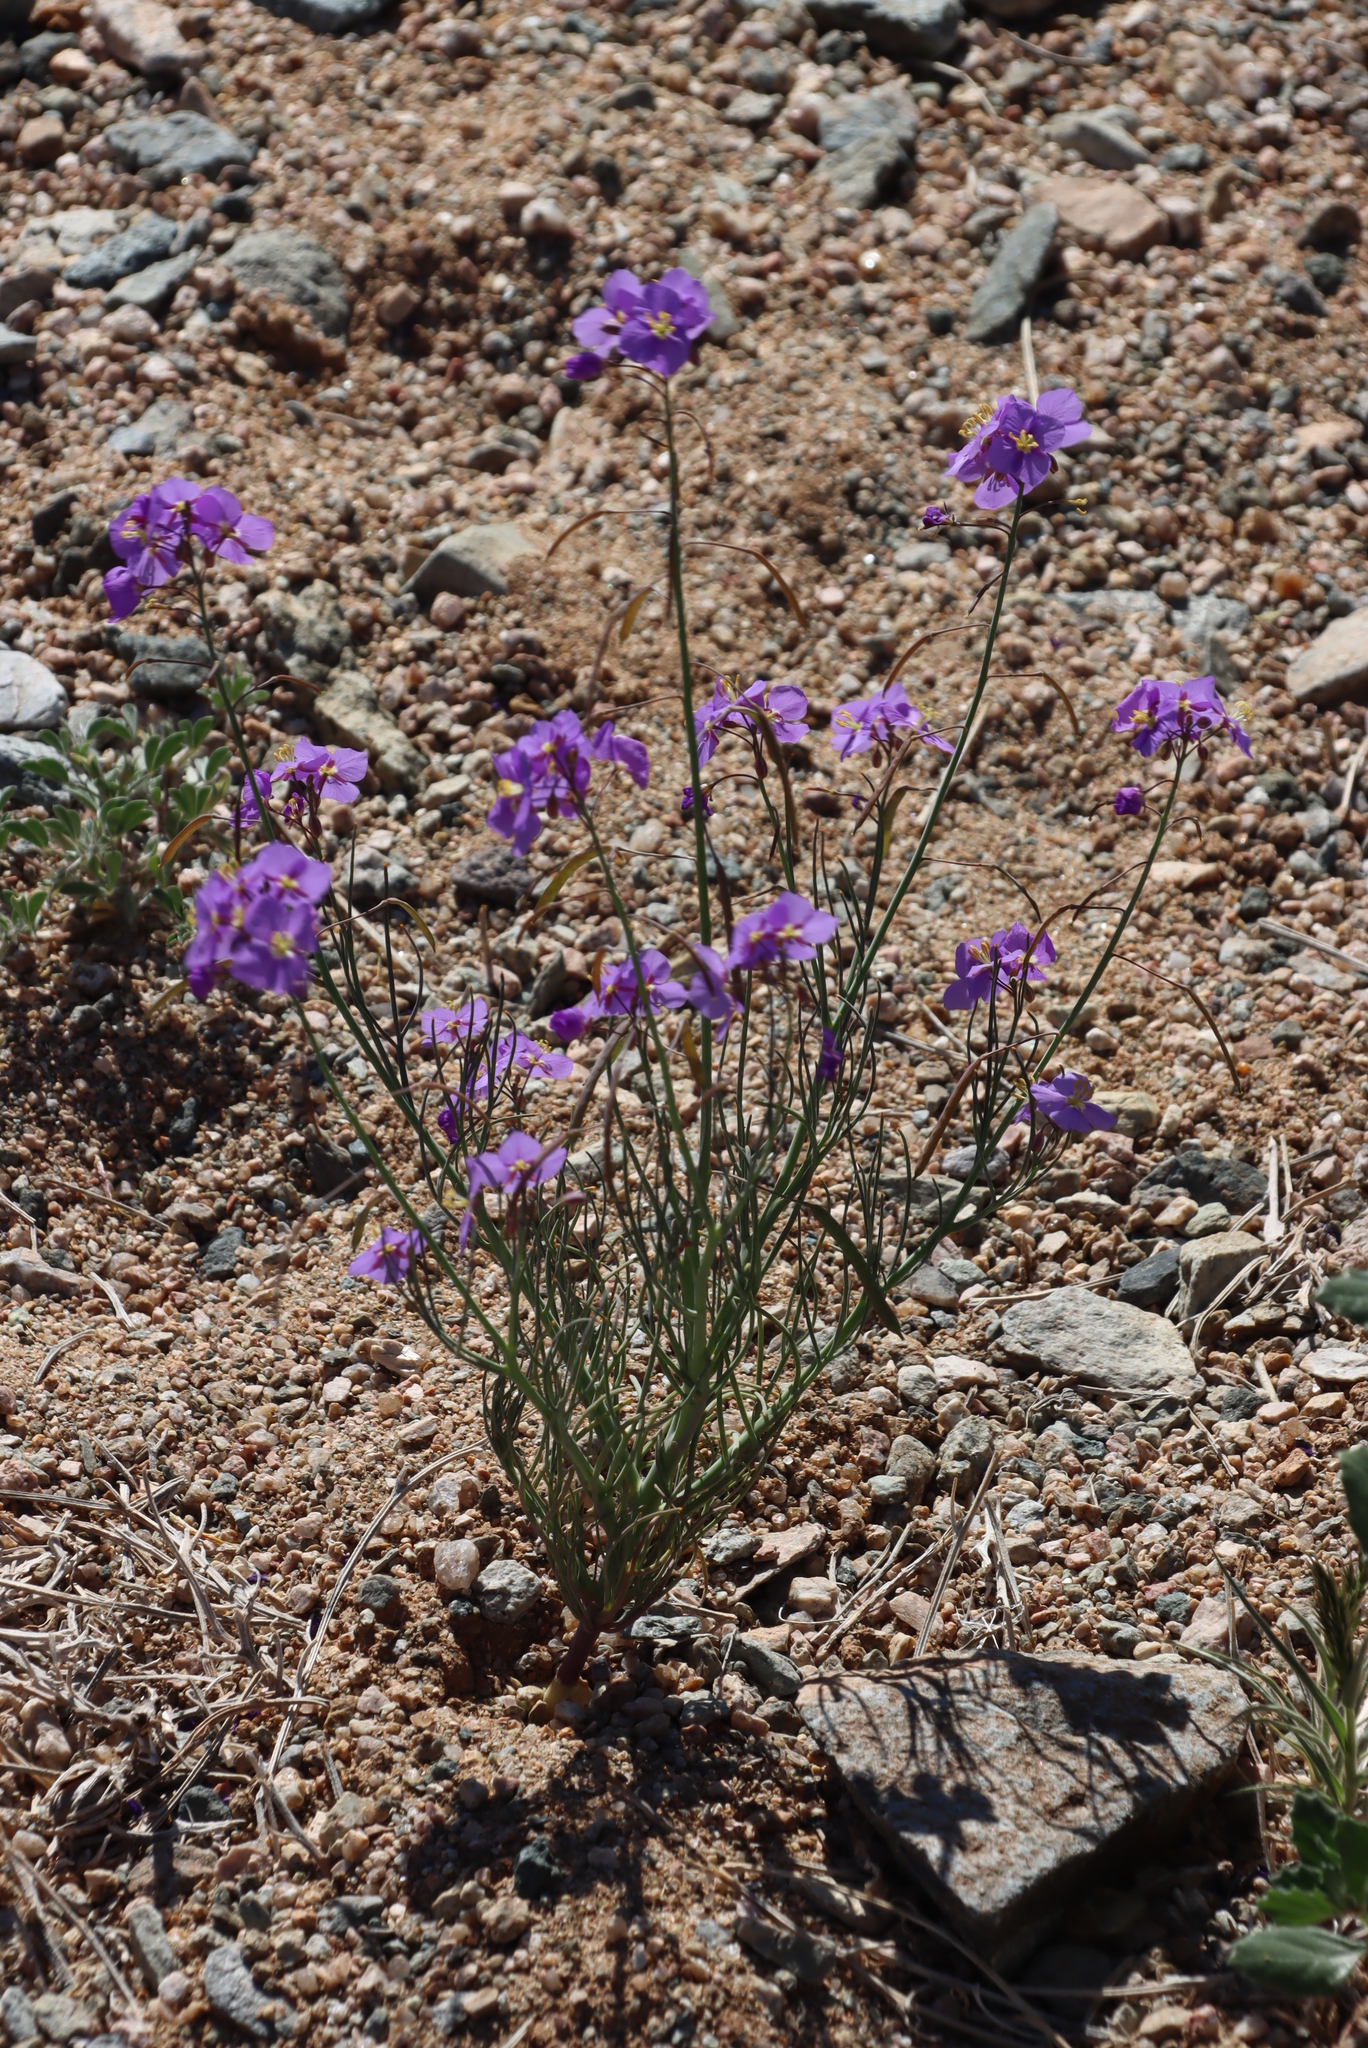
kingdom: Plantae
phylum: Tracheophyta
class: Magnoliopsida
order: Brassicales
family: Brassicaceae
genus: Heliophila
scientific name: Heliophila trifurca
